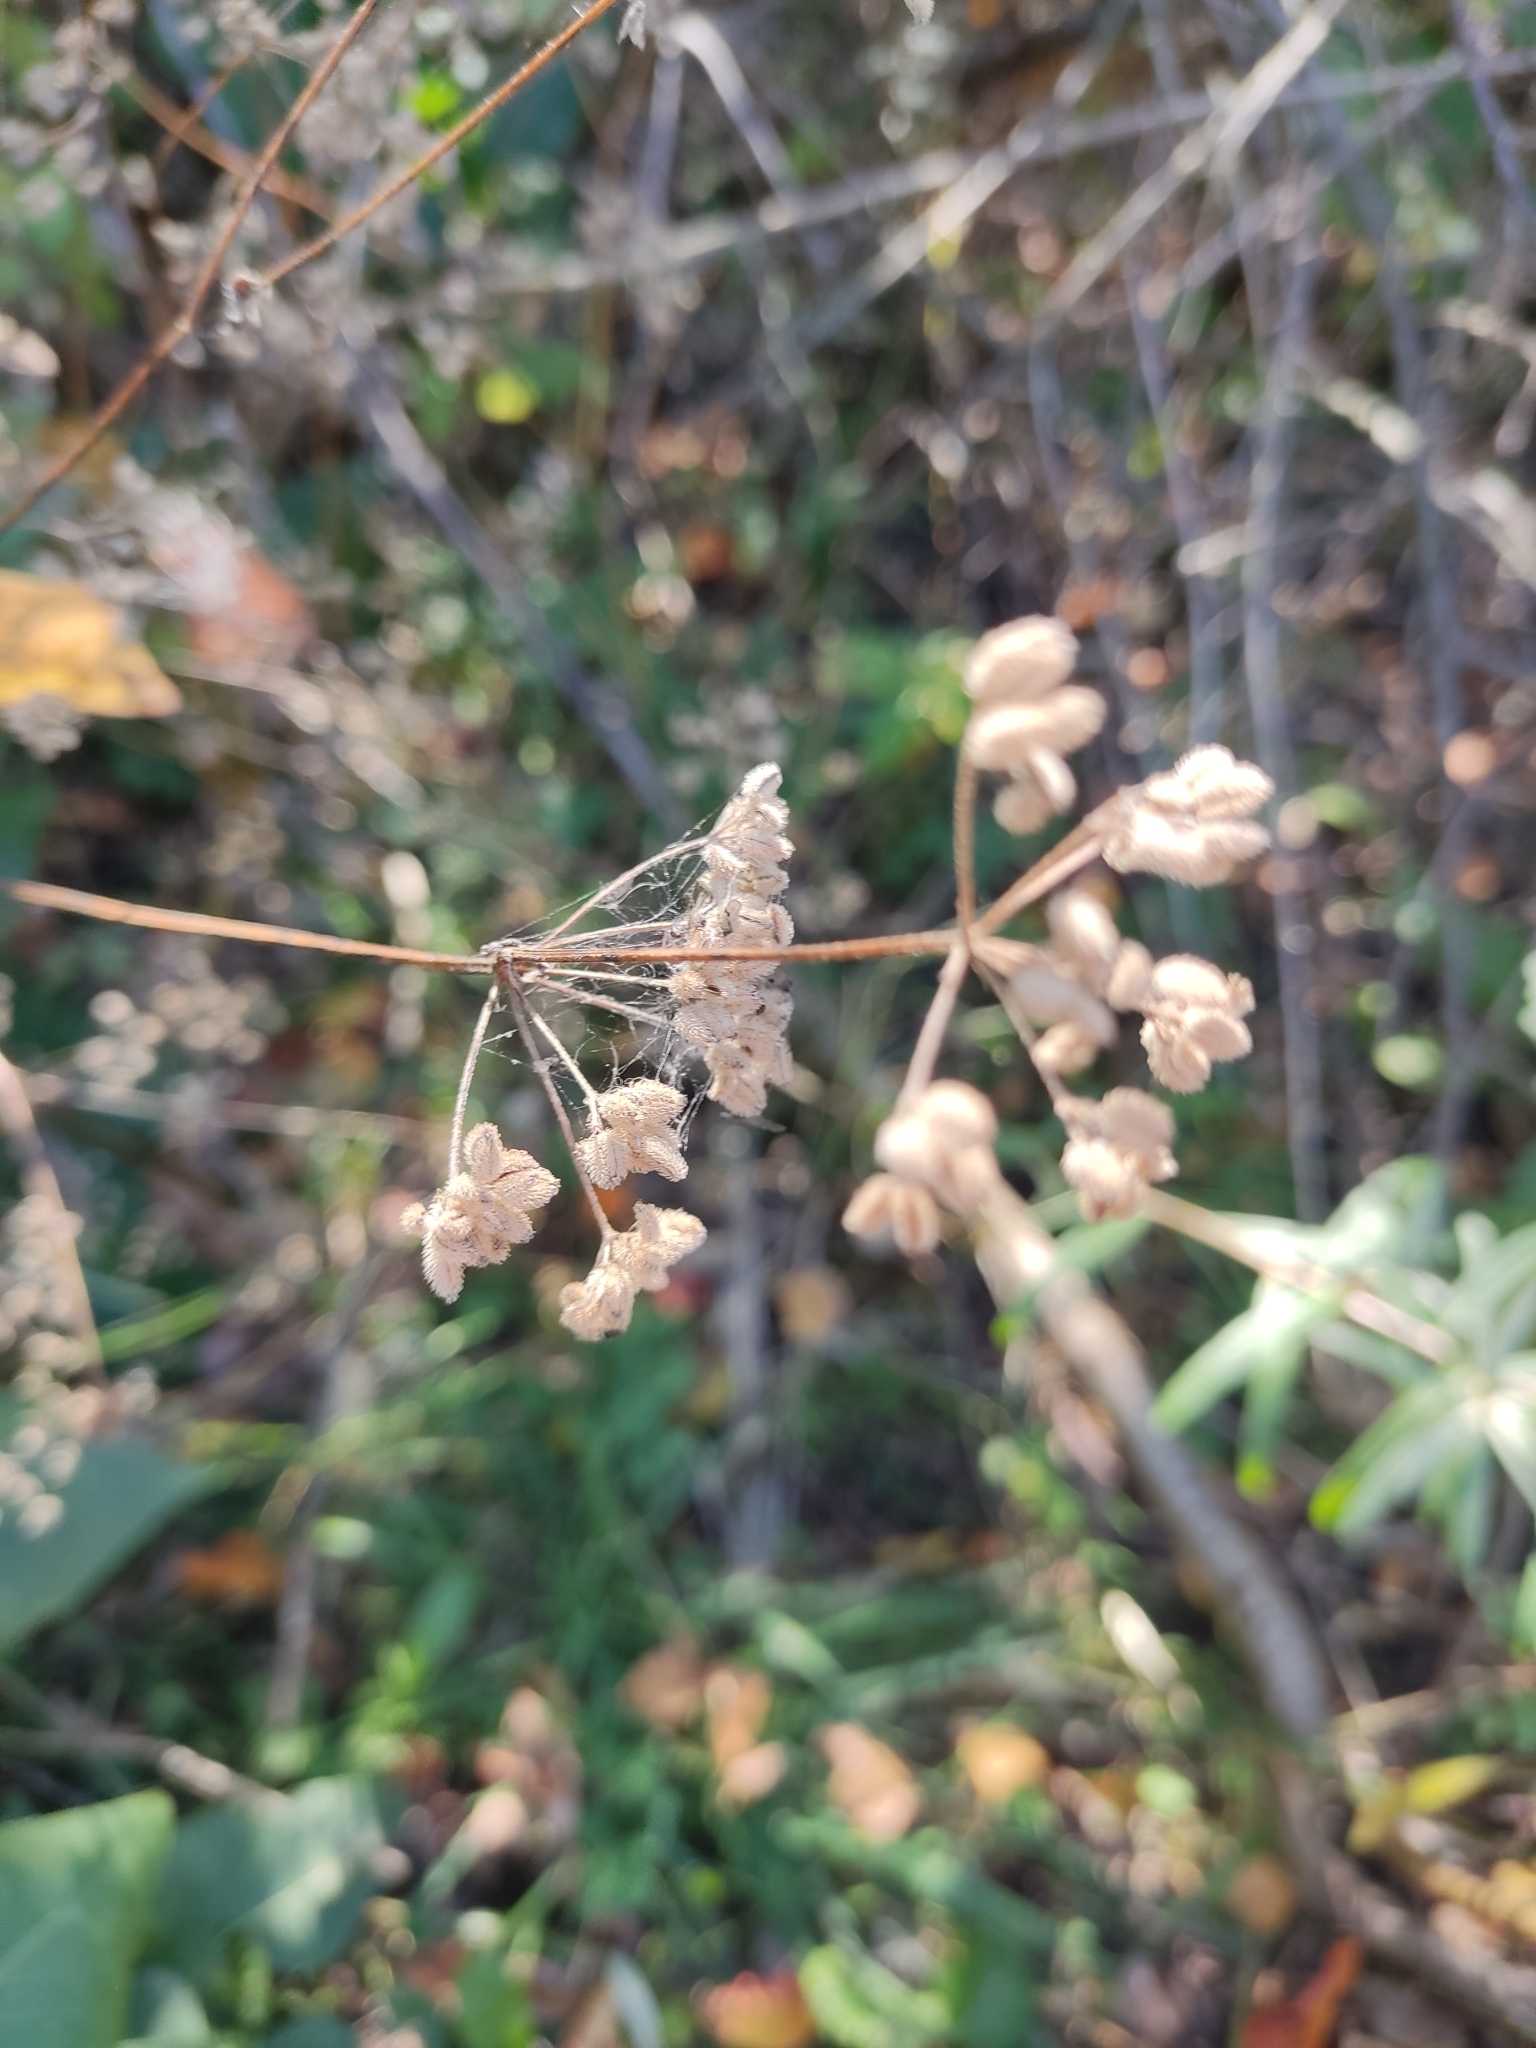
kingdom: Plantae
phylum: Tracheophyta
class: Magnoliopsida
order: Apiales
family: Apiaceae
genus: Torilis
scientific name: Torilis japonica
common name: Upright hedge-parsley
